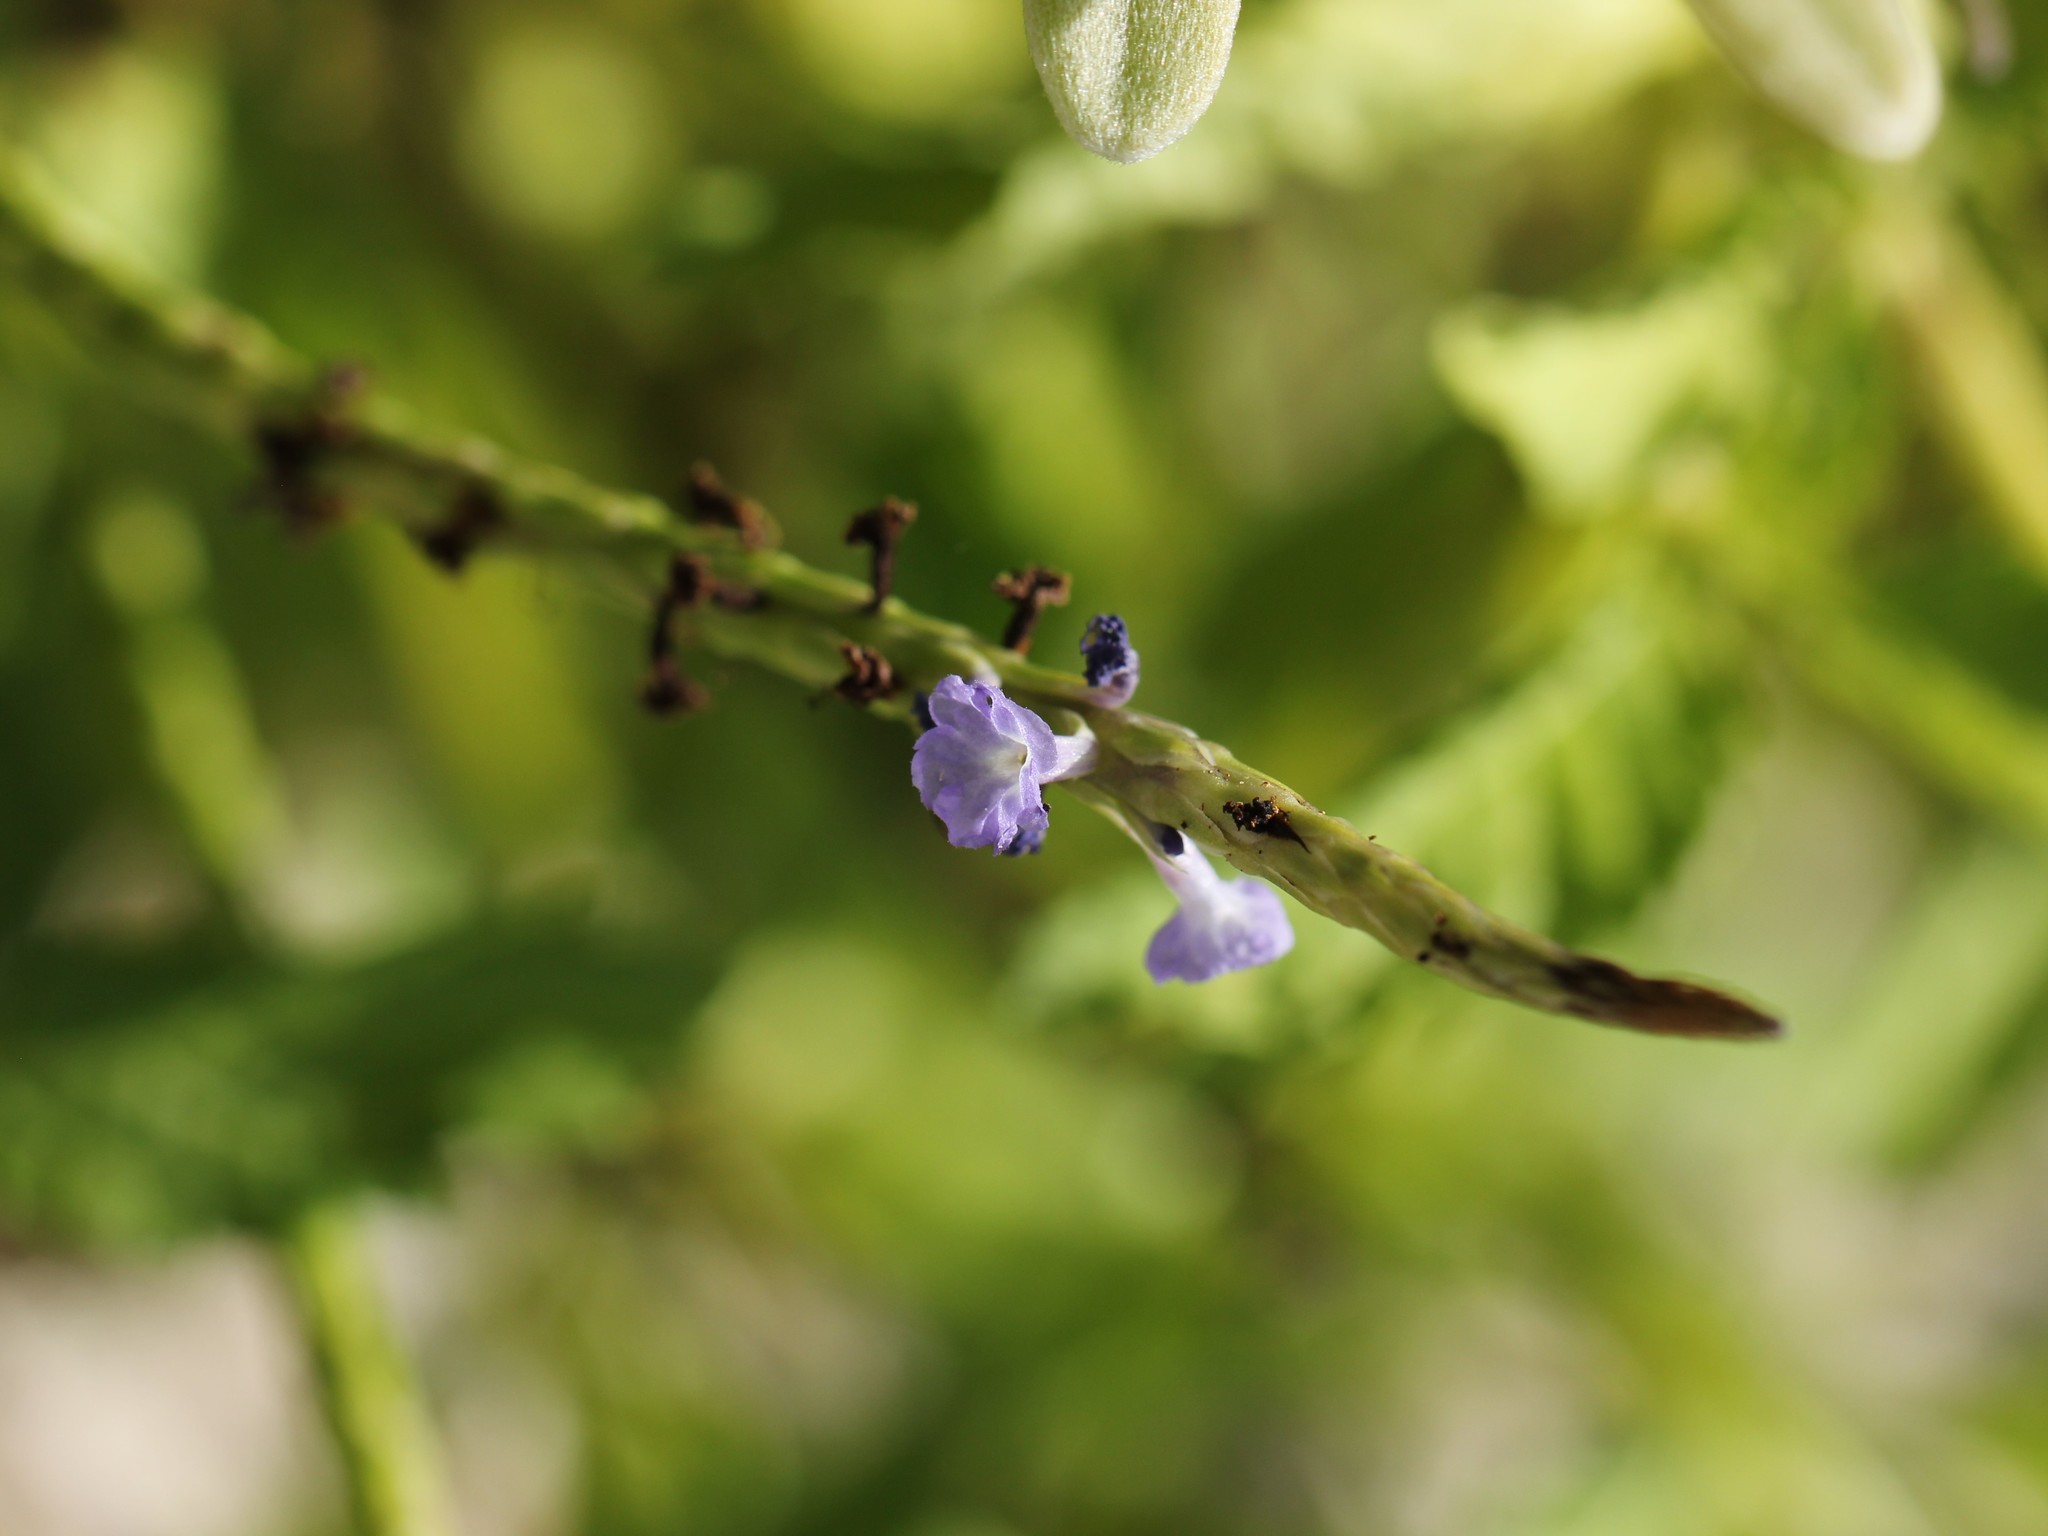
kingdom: Plantae
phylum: Tracheophyta
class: Magnoliopsida
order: Lamiales
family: Verbenaceae
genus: Stachytarpheta
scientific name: Stachytarpheta jamaicensis
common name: Light-blue snakeweed
